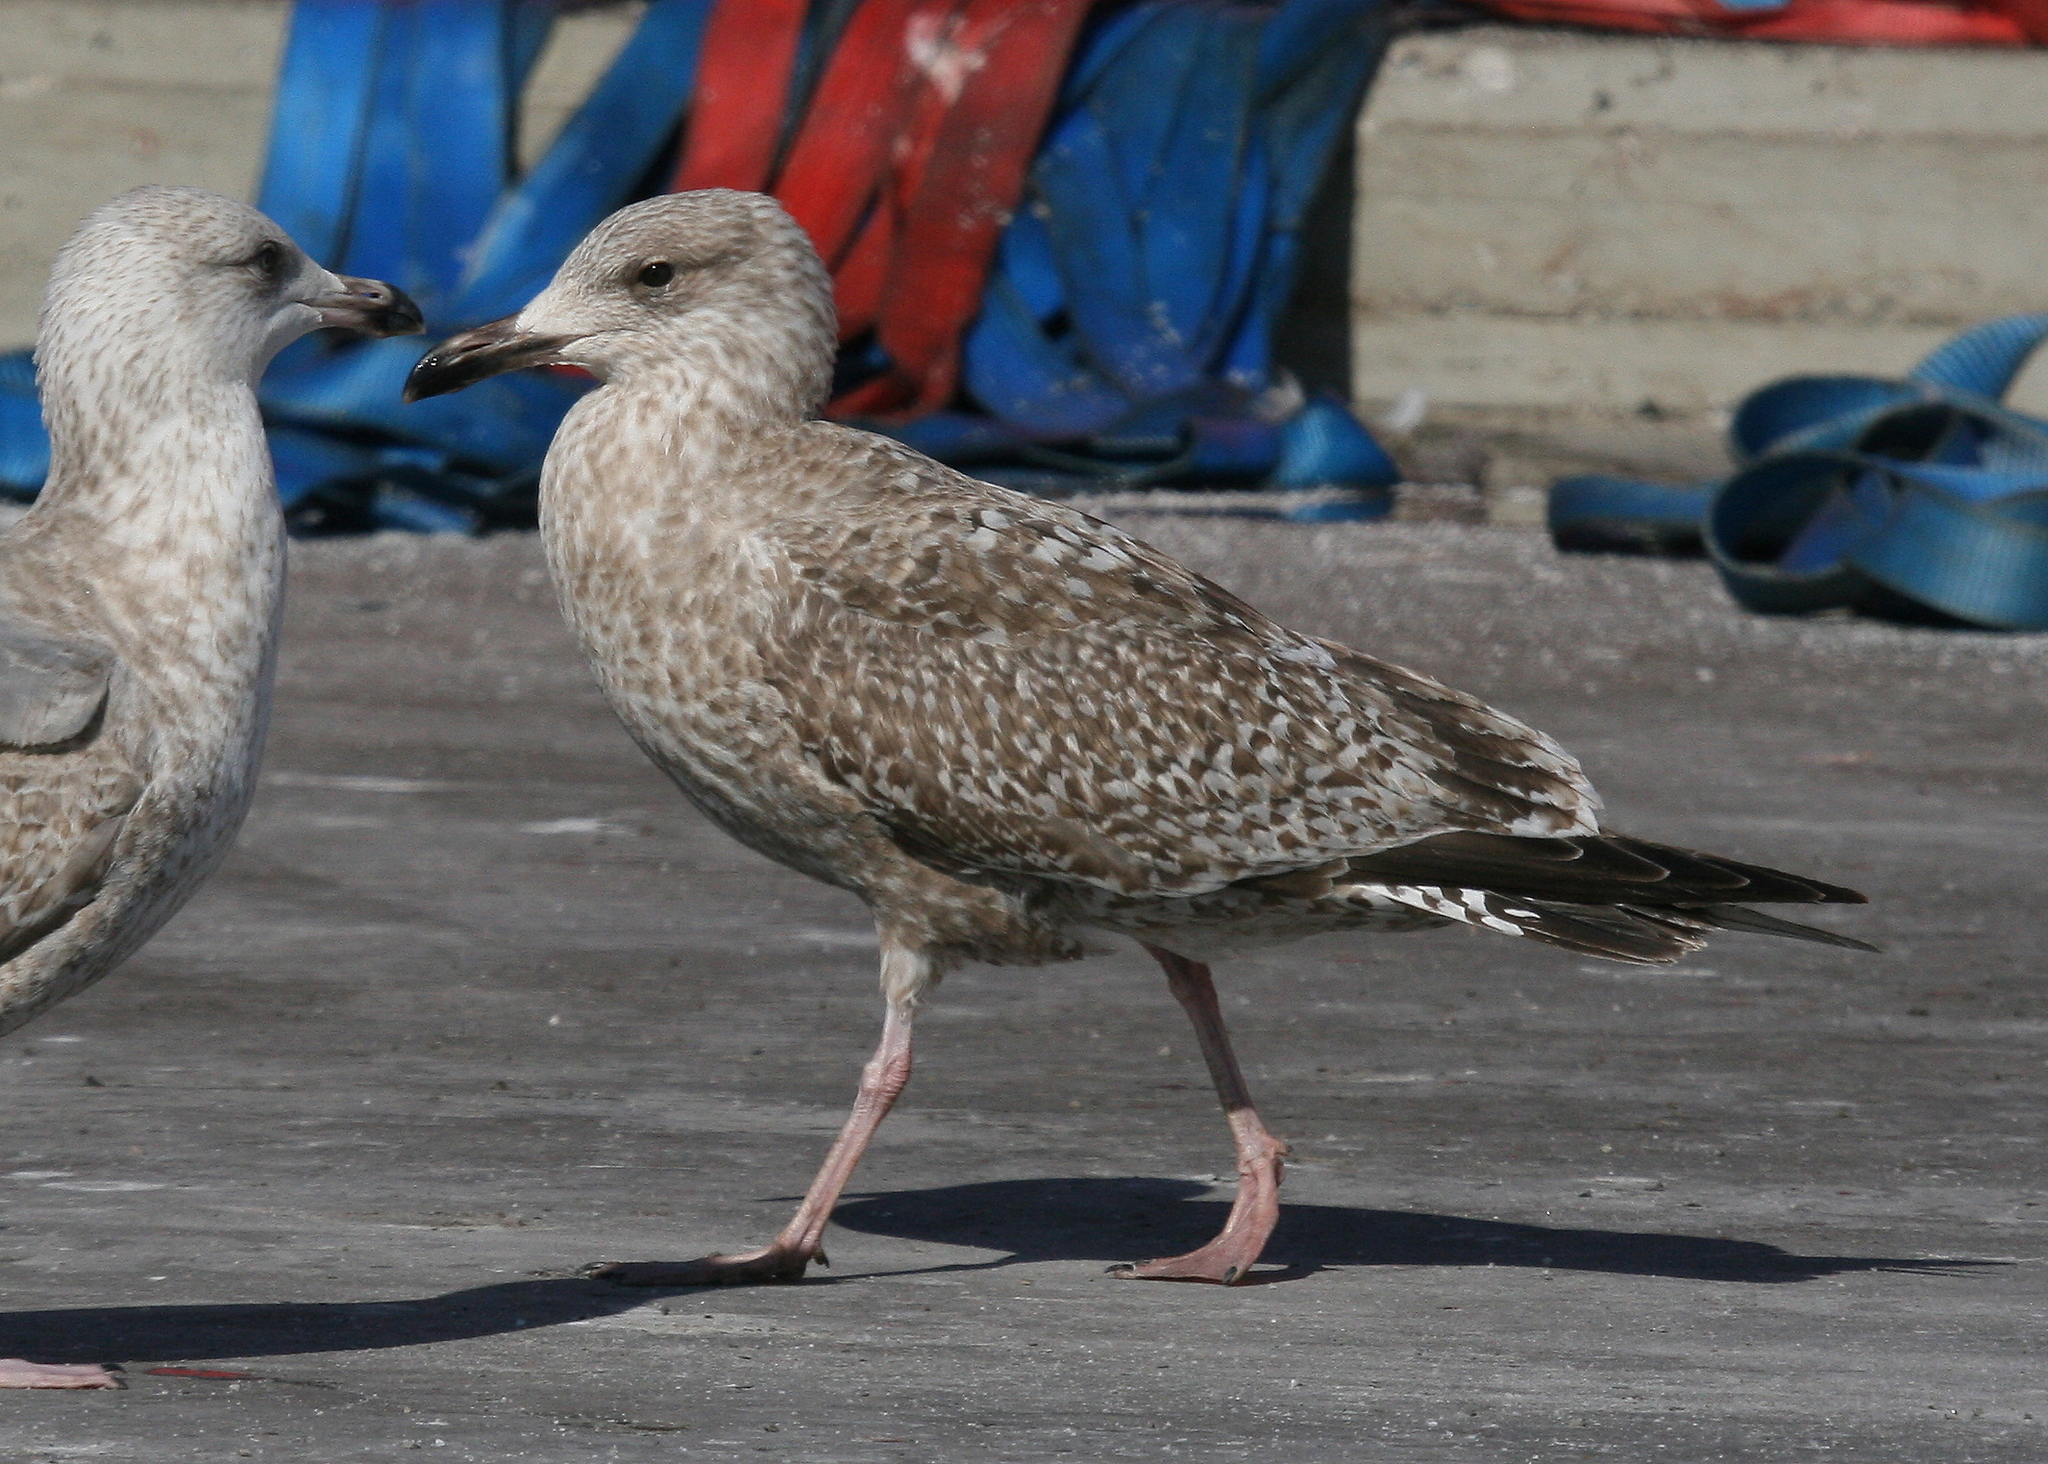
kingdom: Animalia
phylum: Chordata
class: Aves
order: Charadriiformes
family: Laridae
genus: Larus
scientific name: Larus argentatus
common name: Herring gull
